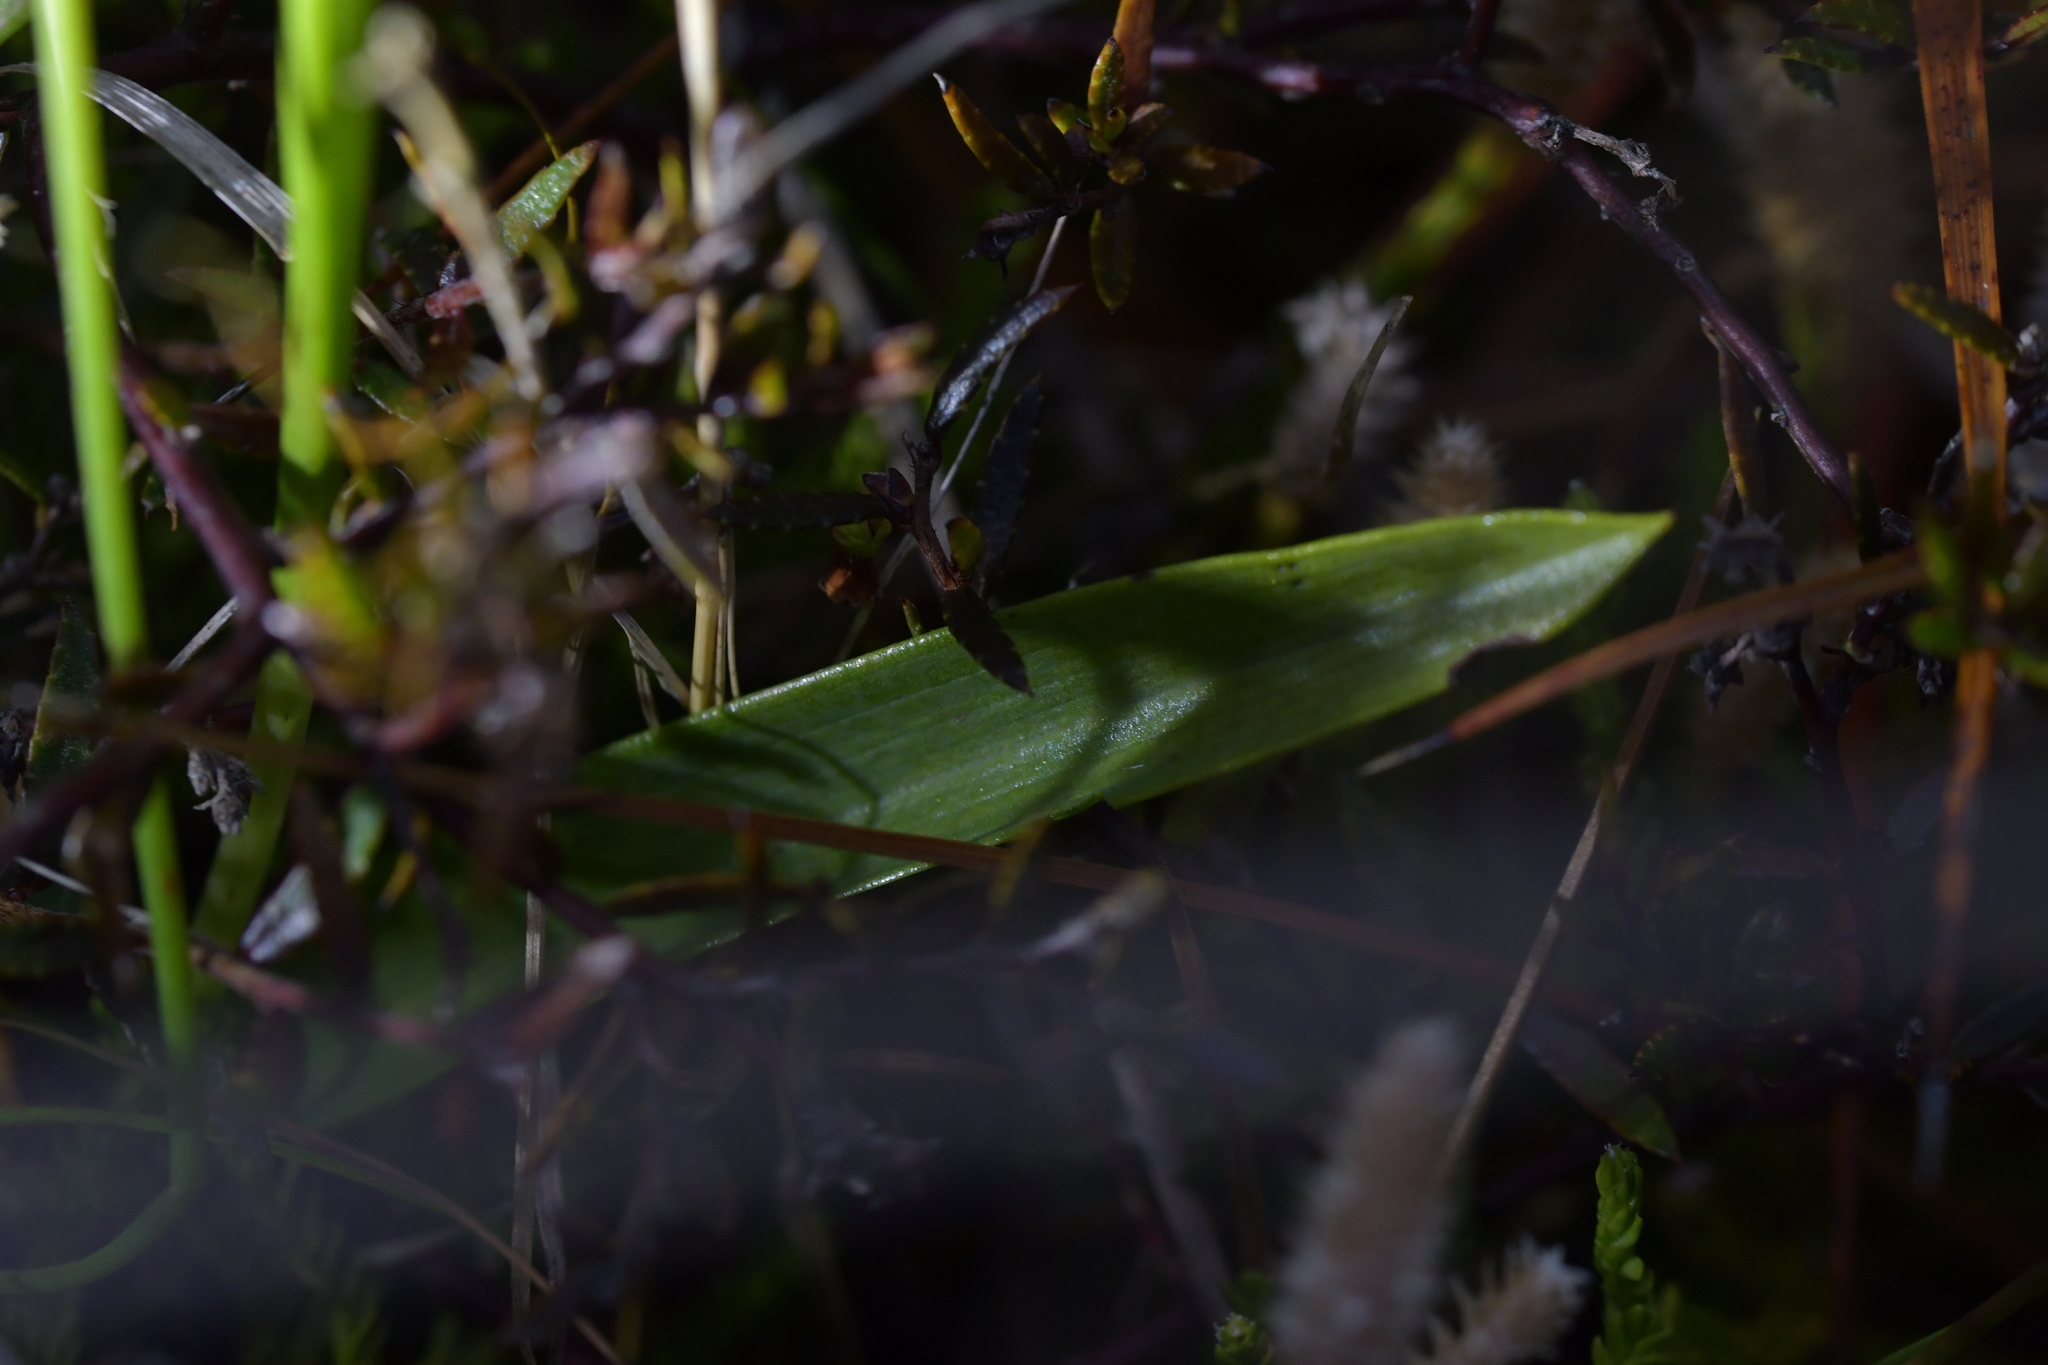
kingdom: Plantae
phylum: Tracheophyta
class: Liliopsida
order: Asparagales
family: Orchidaceae
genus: Waireia
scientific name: Waireia stenopetala
